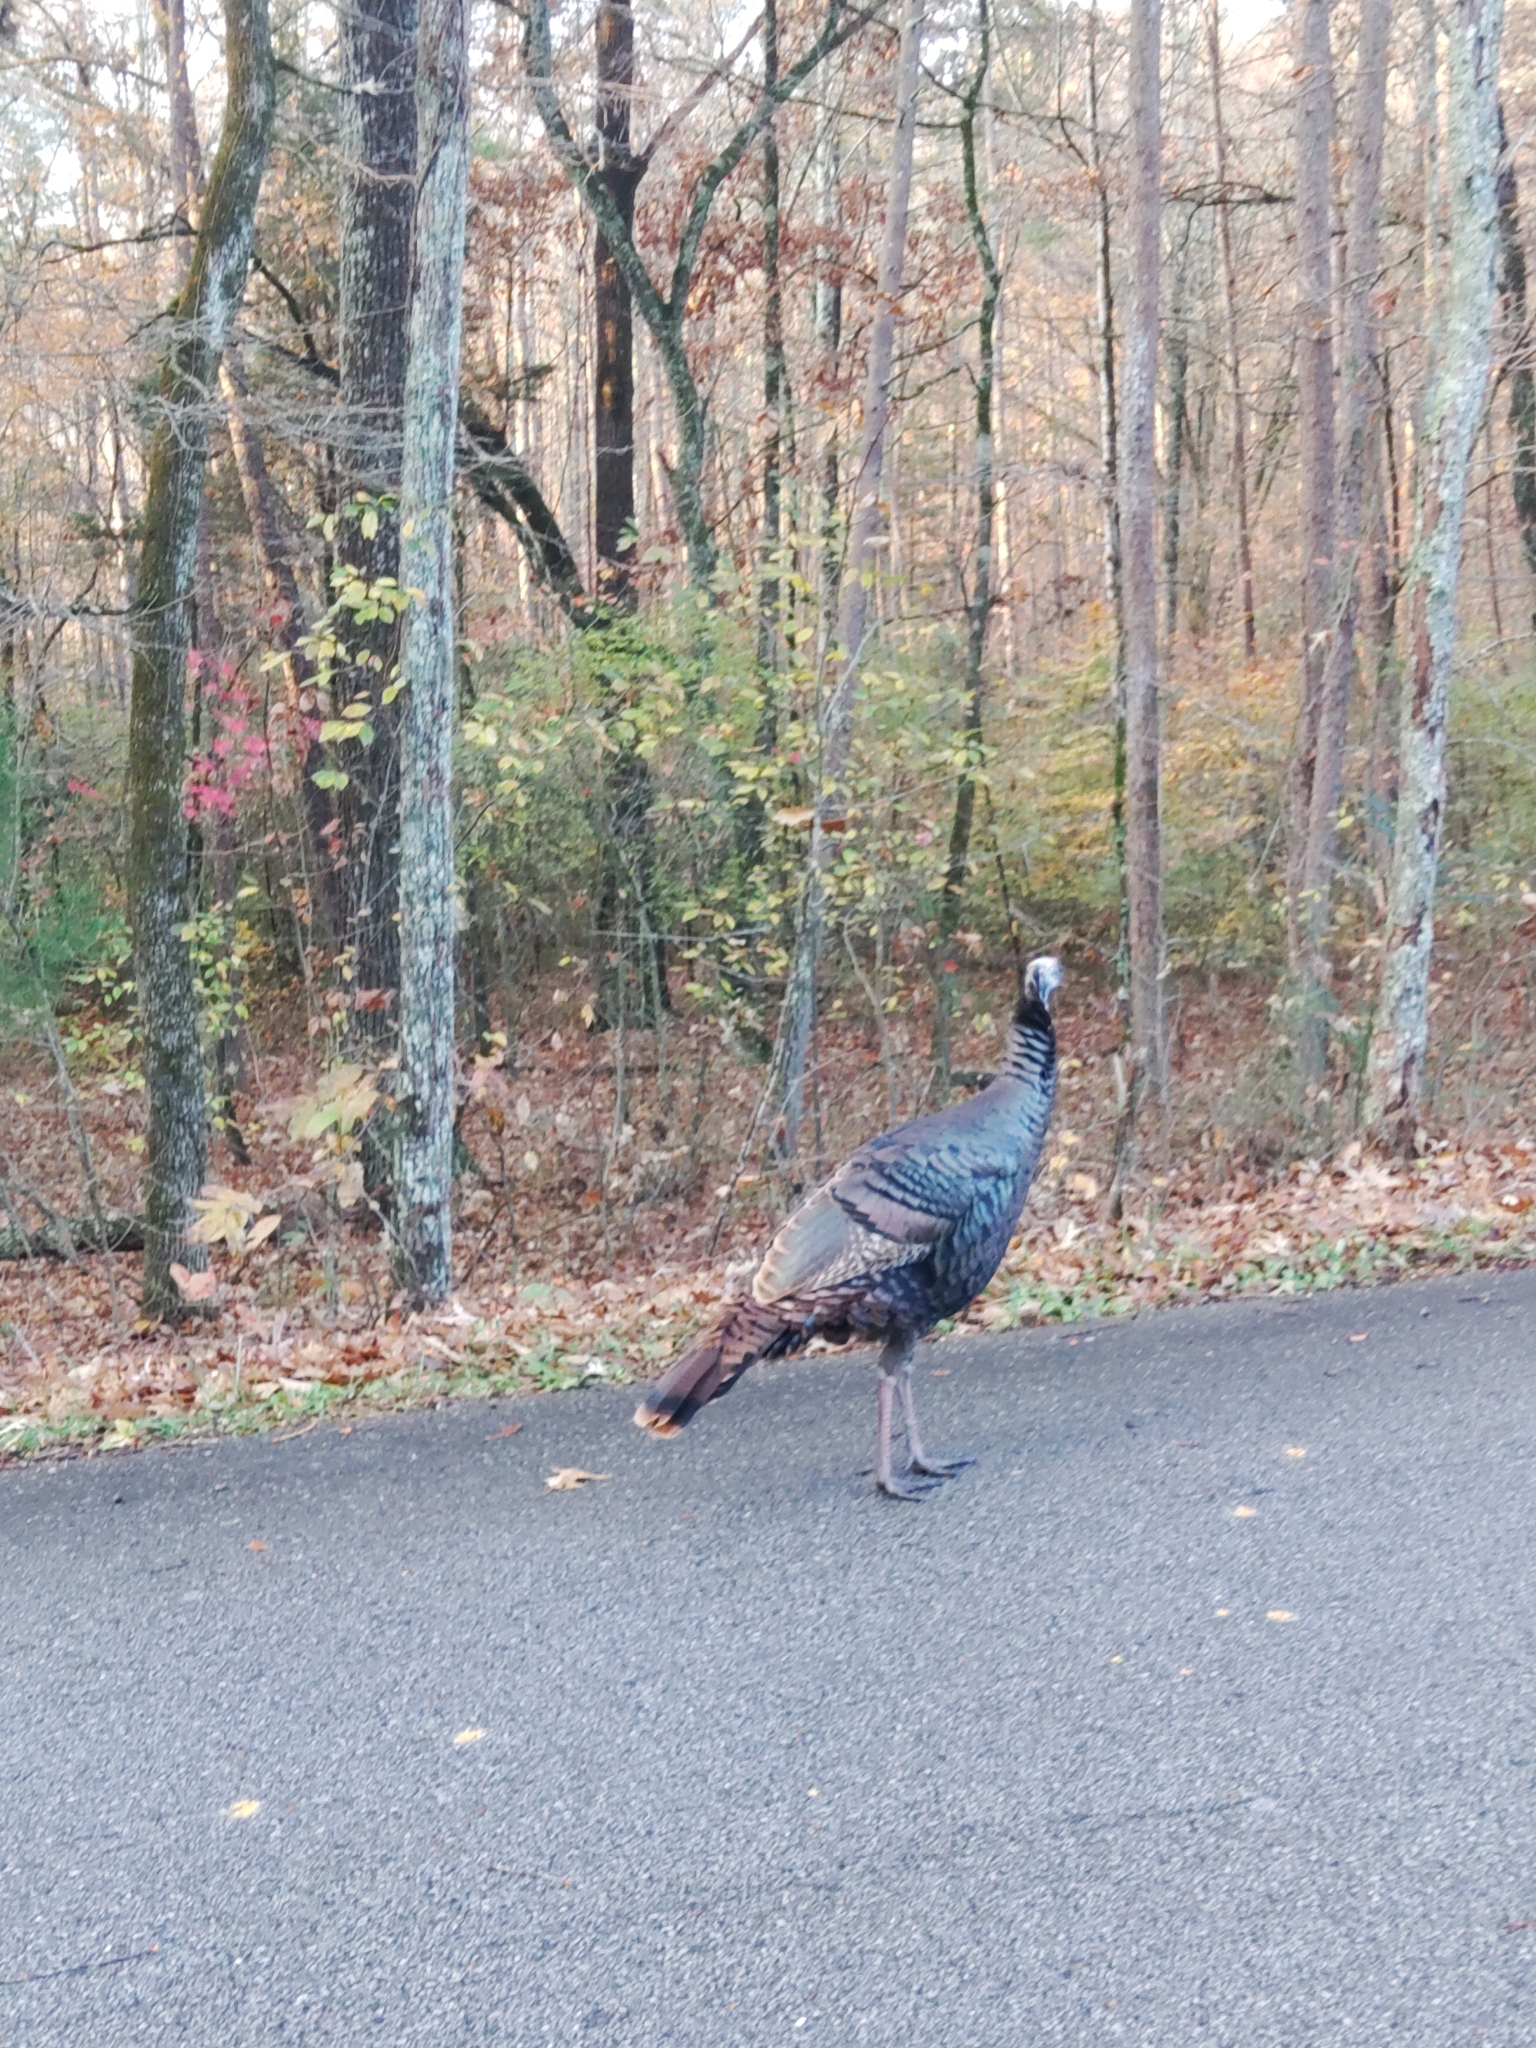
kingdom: Animalia
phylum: Chordata
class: Aves
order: Galliformes
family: Phasianidae
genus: Meleagris
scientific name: Meleagris gallopavo
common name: Wild turkey
